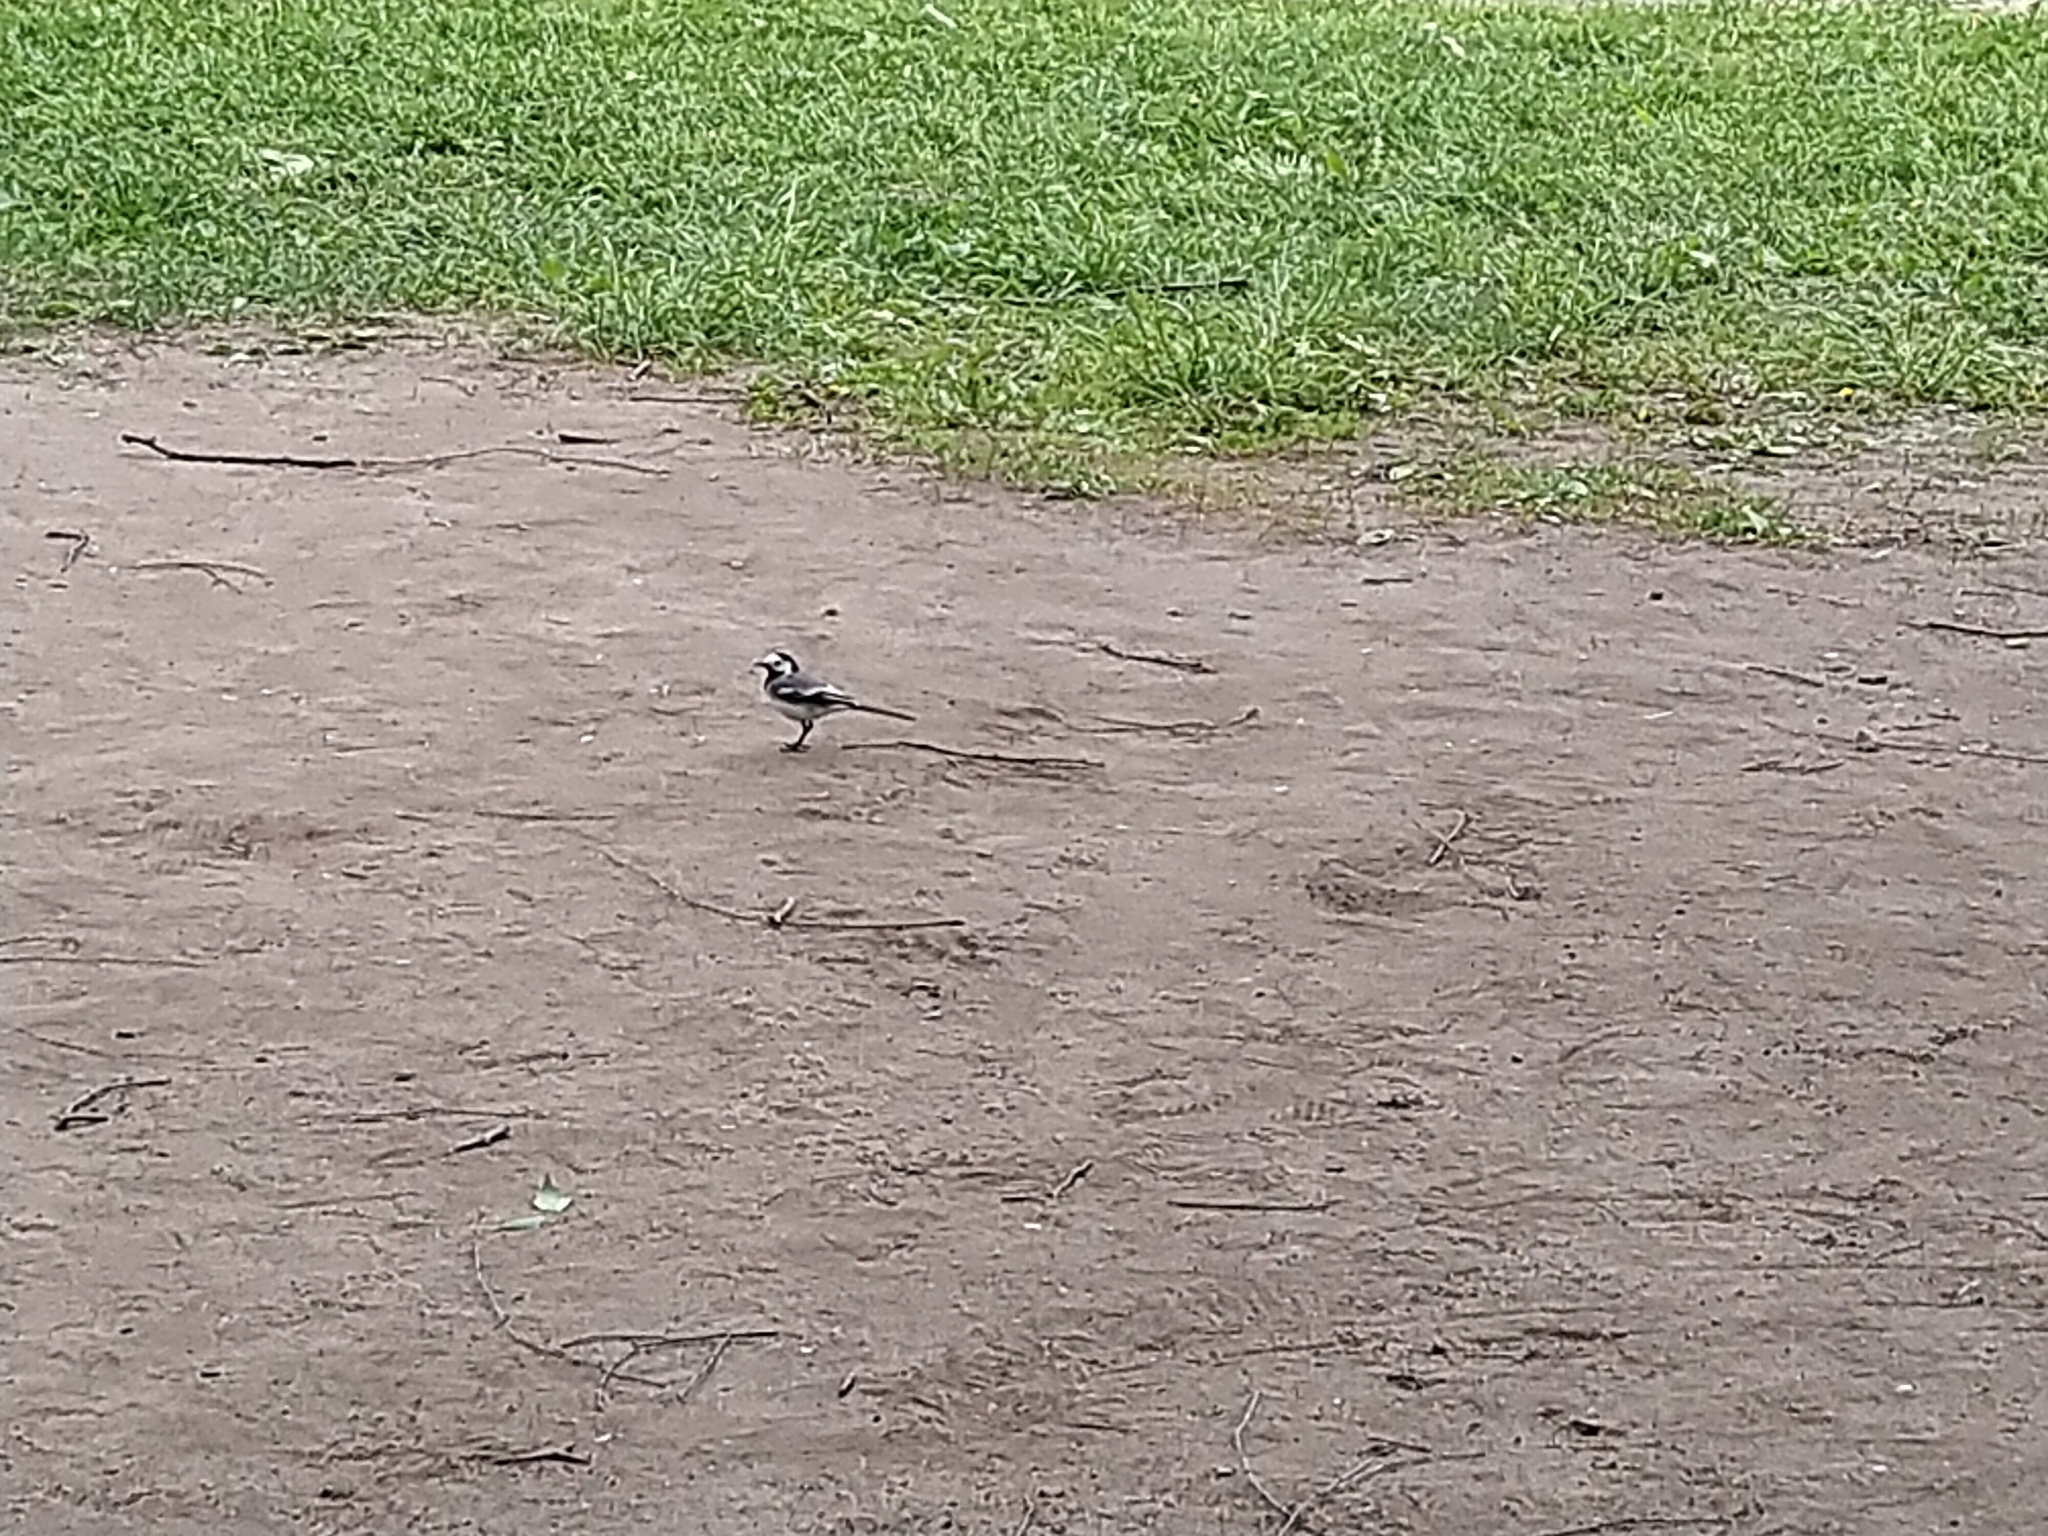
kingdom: Animalia
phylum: Chordata
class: Aves
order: Passeriformes
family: Motacillidae
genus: Motacilla
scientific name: Motacilla alba
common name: White wagtail
